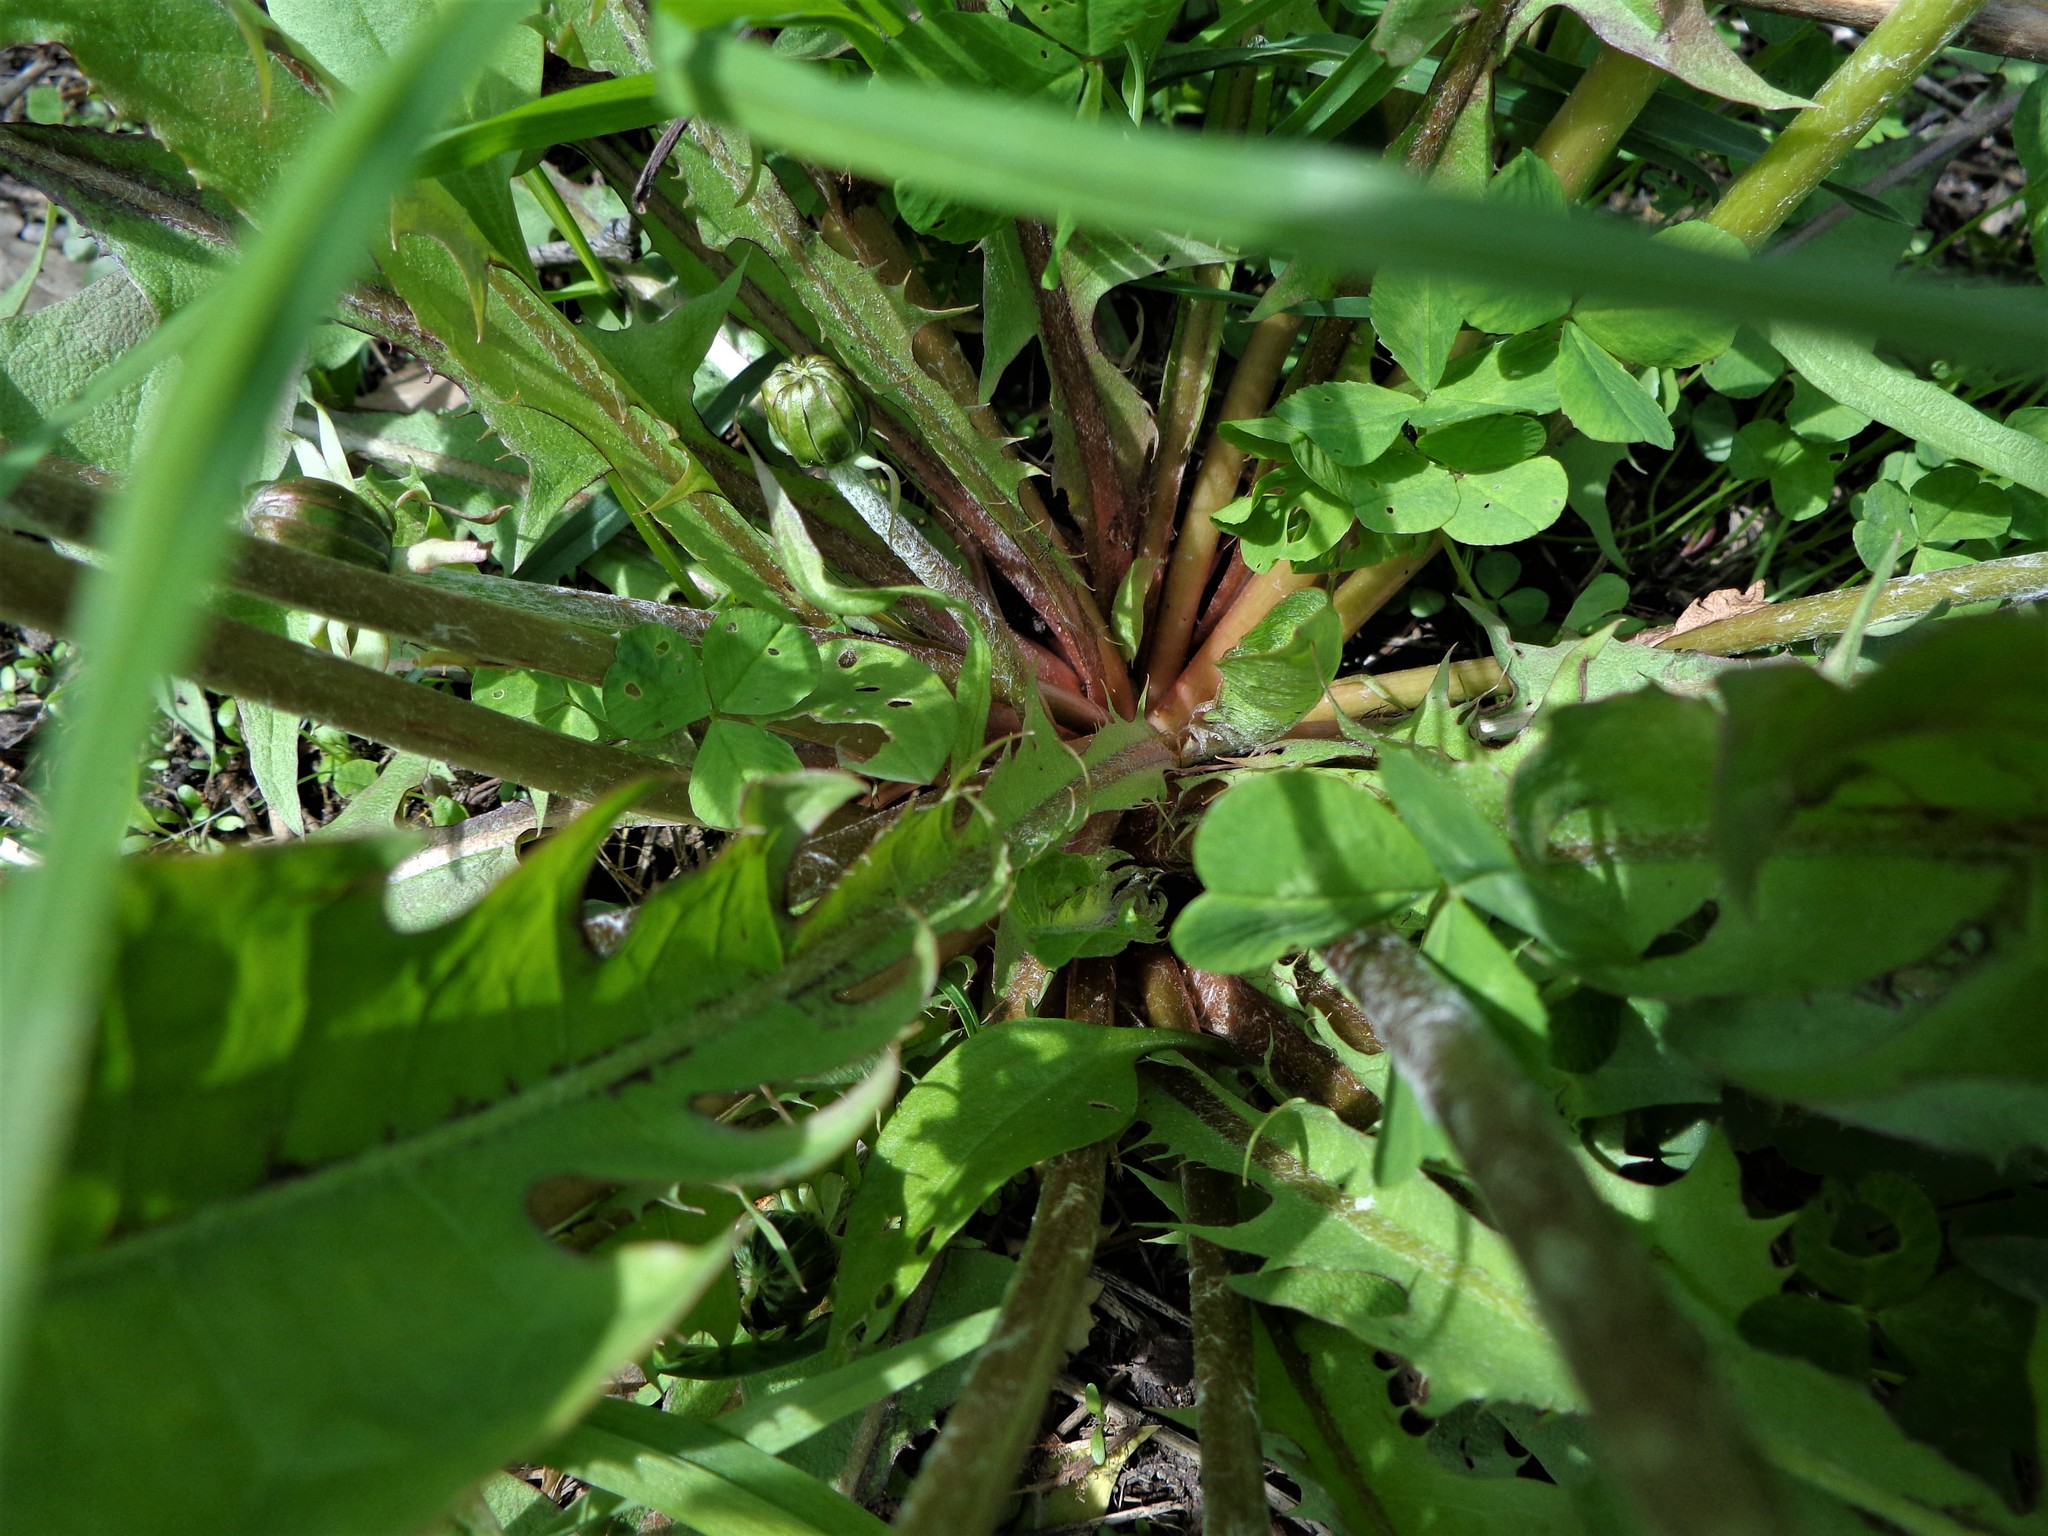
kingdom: Plantae
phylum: Tracheophyta
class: Magnoliopsida
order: Asterales
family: Asteraceae
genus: Taraxacum
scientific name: Taraxacum officinale
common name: Common dandelion
